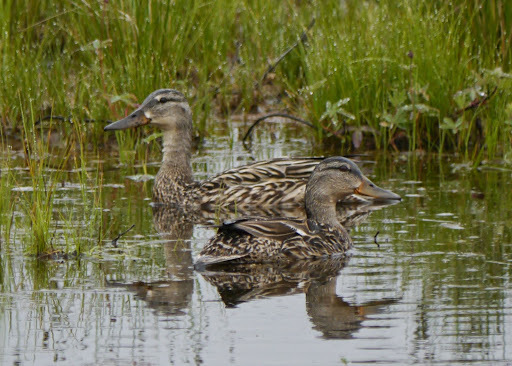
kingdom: Animalia
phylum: Chordata
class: Aves
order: Anseriformes
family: Anatidae
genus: Anas
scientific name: Anas platyrhynchos
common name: Mallard
